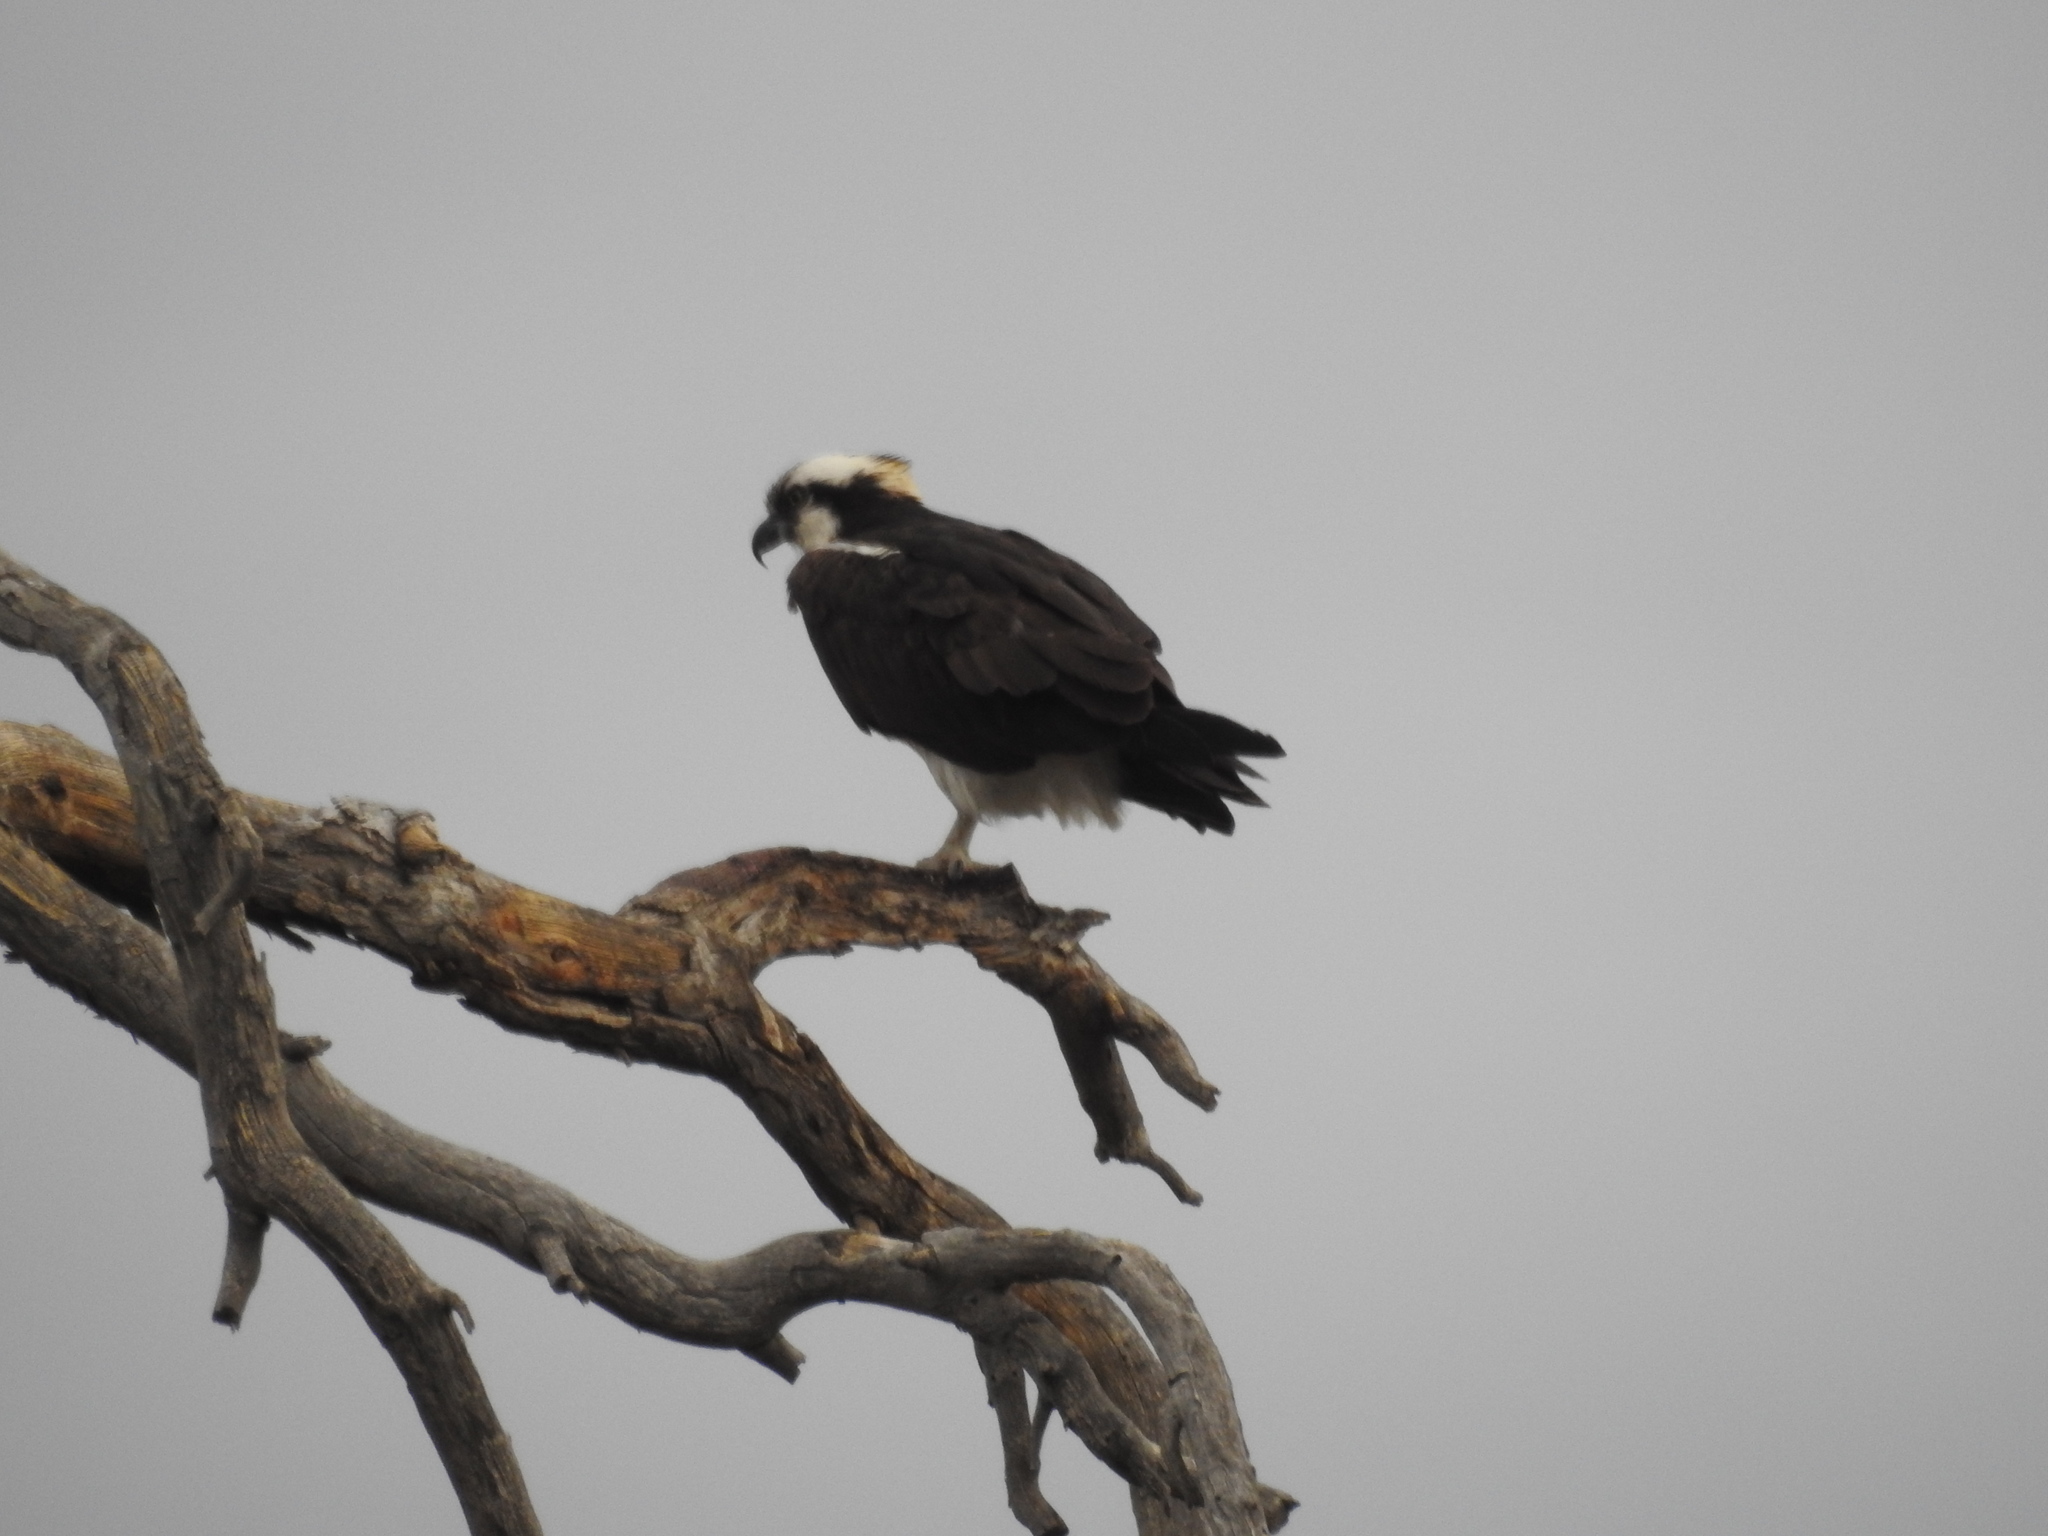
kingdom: Animalia
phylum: Chordata
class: Aves
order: Accipitriformes
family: Pandionidae
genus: Pandion
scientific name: Pandion haliaetus
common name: Osprey
